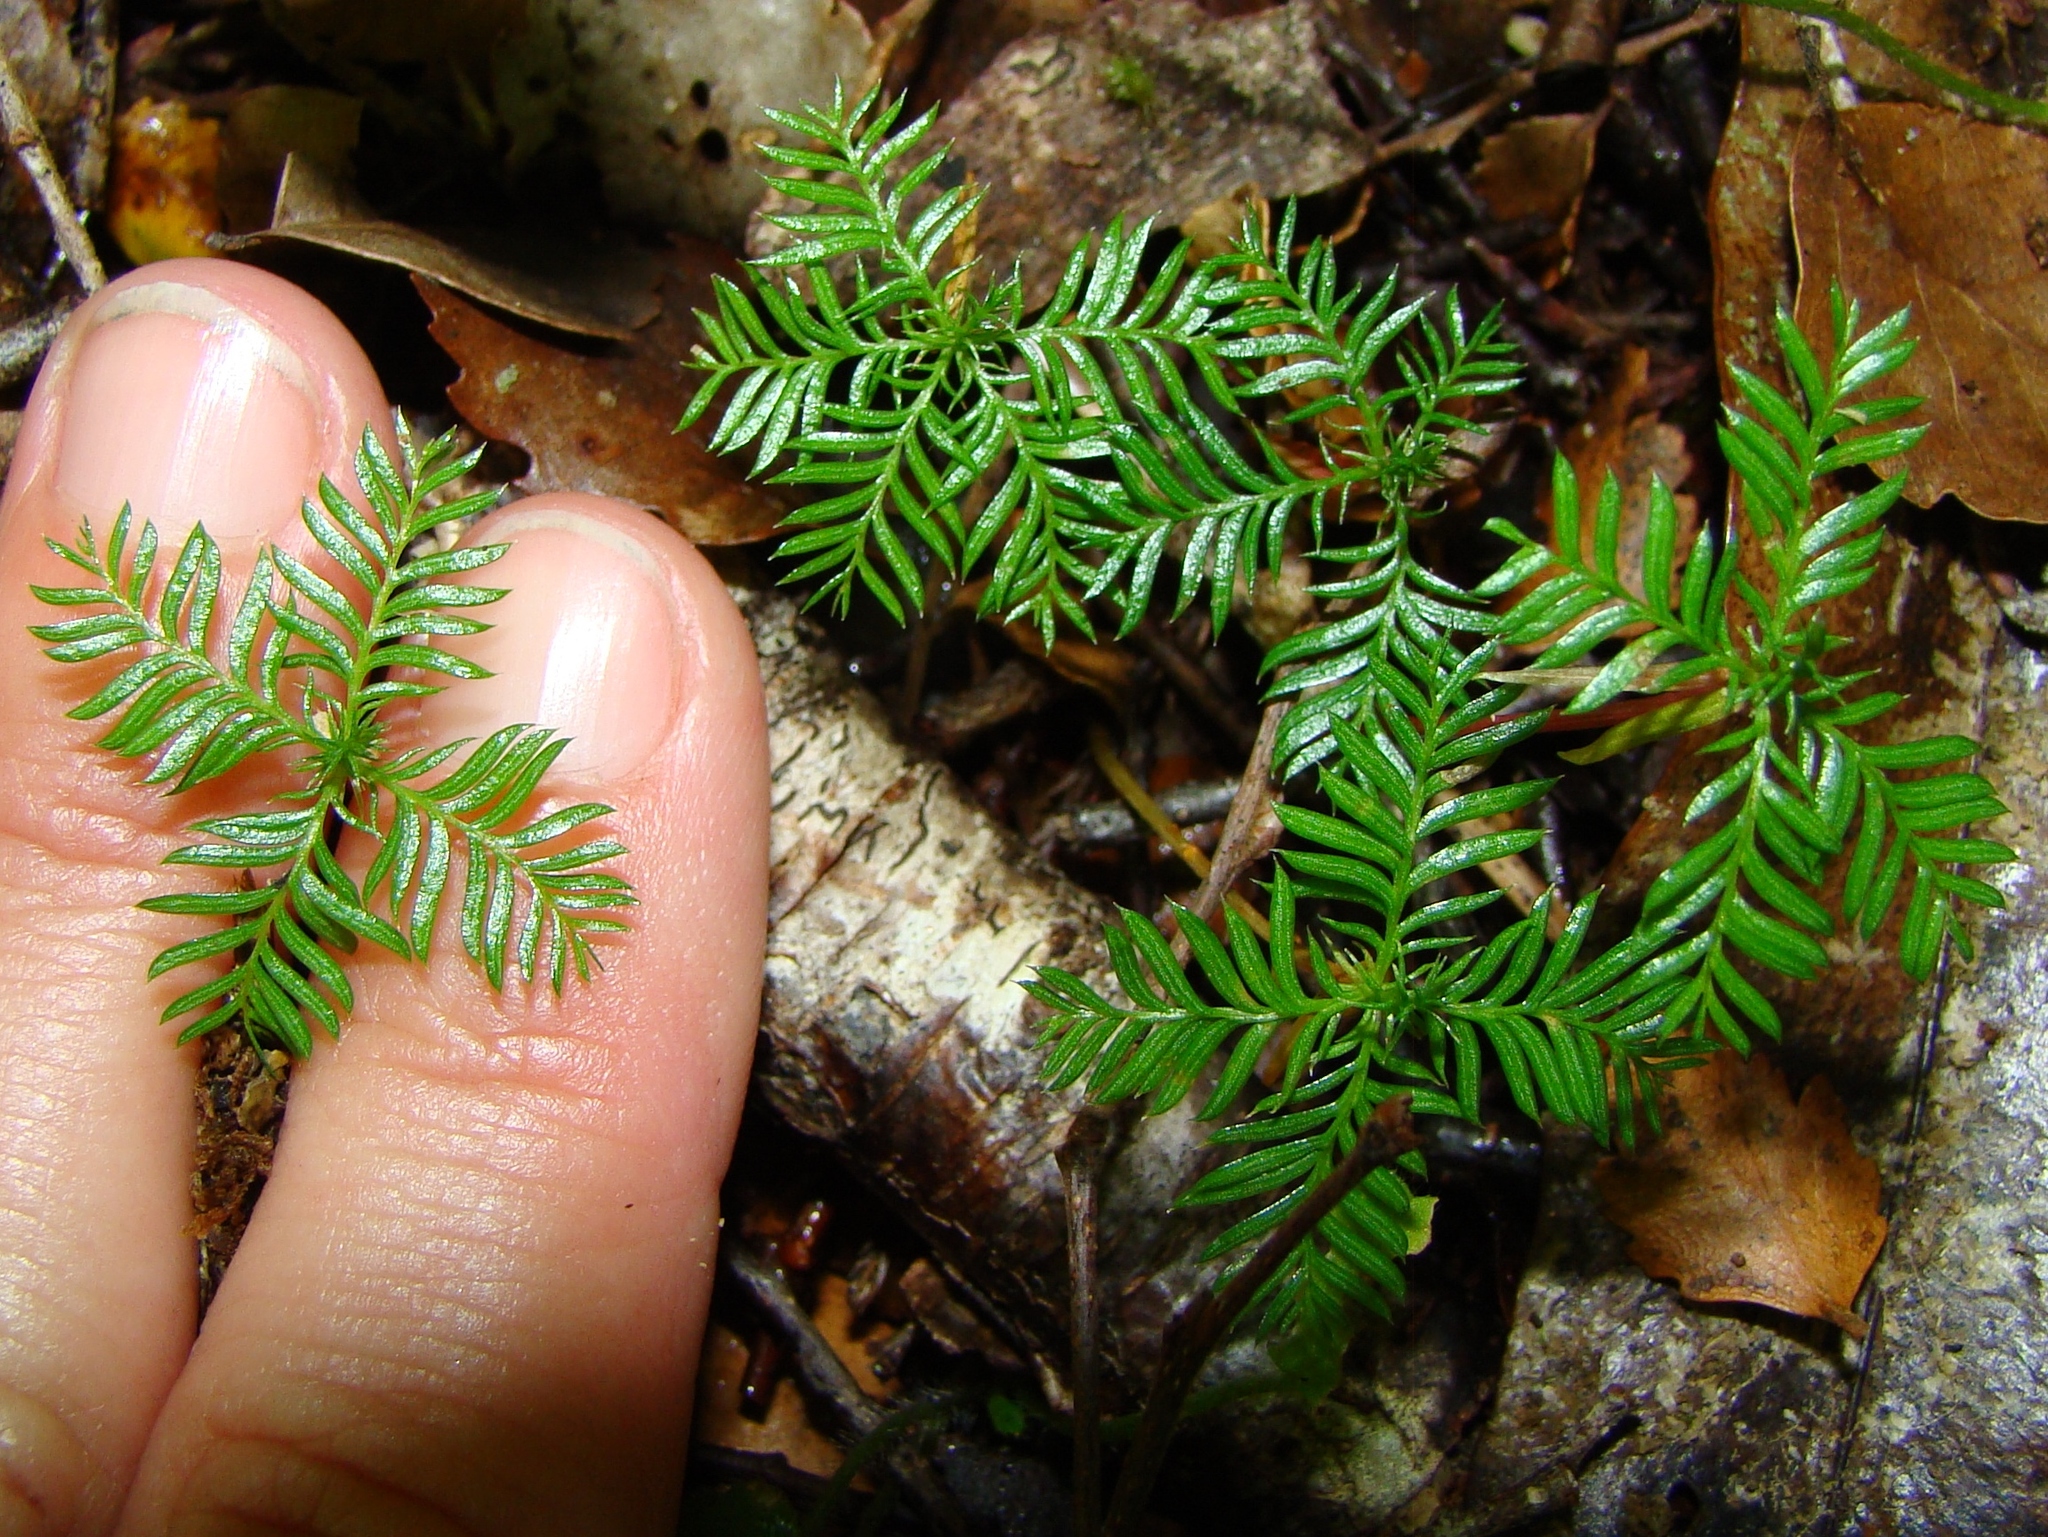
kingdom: Plantae
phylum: Tracheophyta
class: Pinopsida
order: Pinales
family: Podocarpaceae
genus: Dacrycarpus
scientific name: Dacrycarpus dacrydioides
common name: White pine
